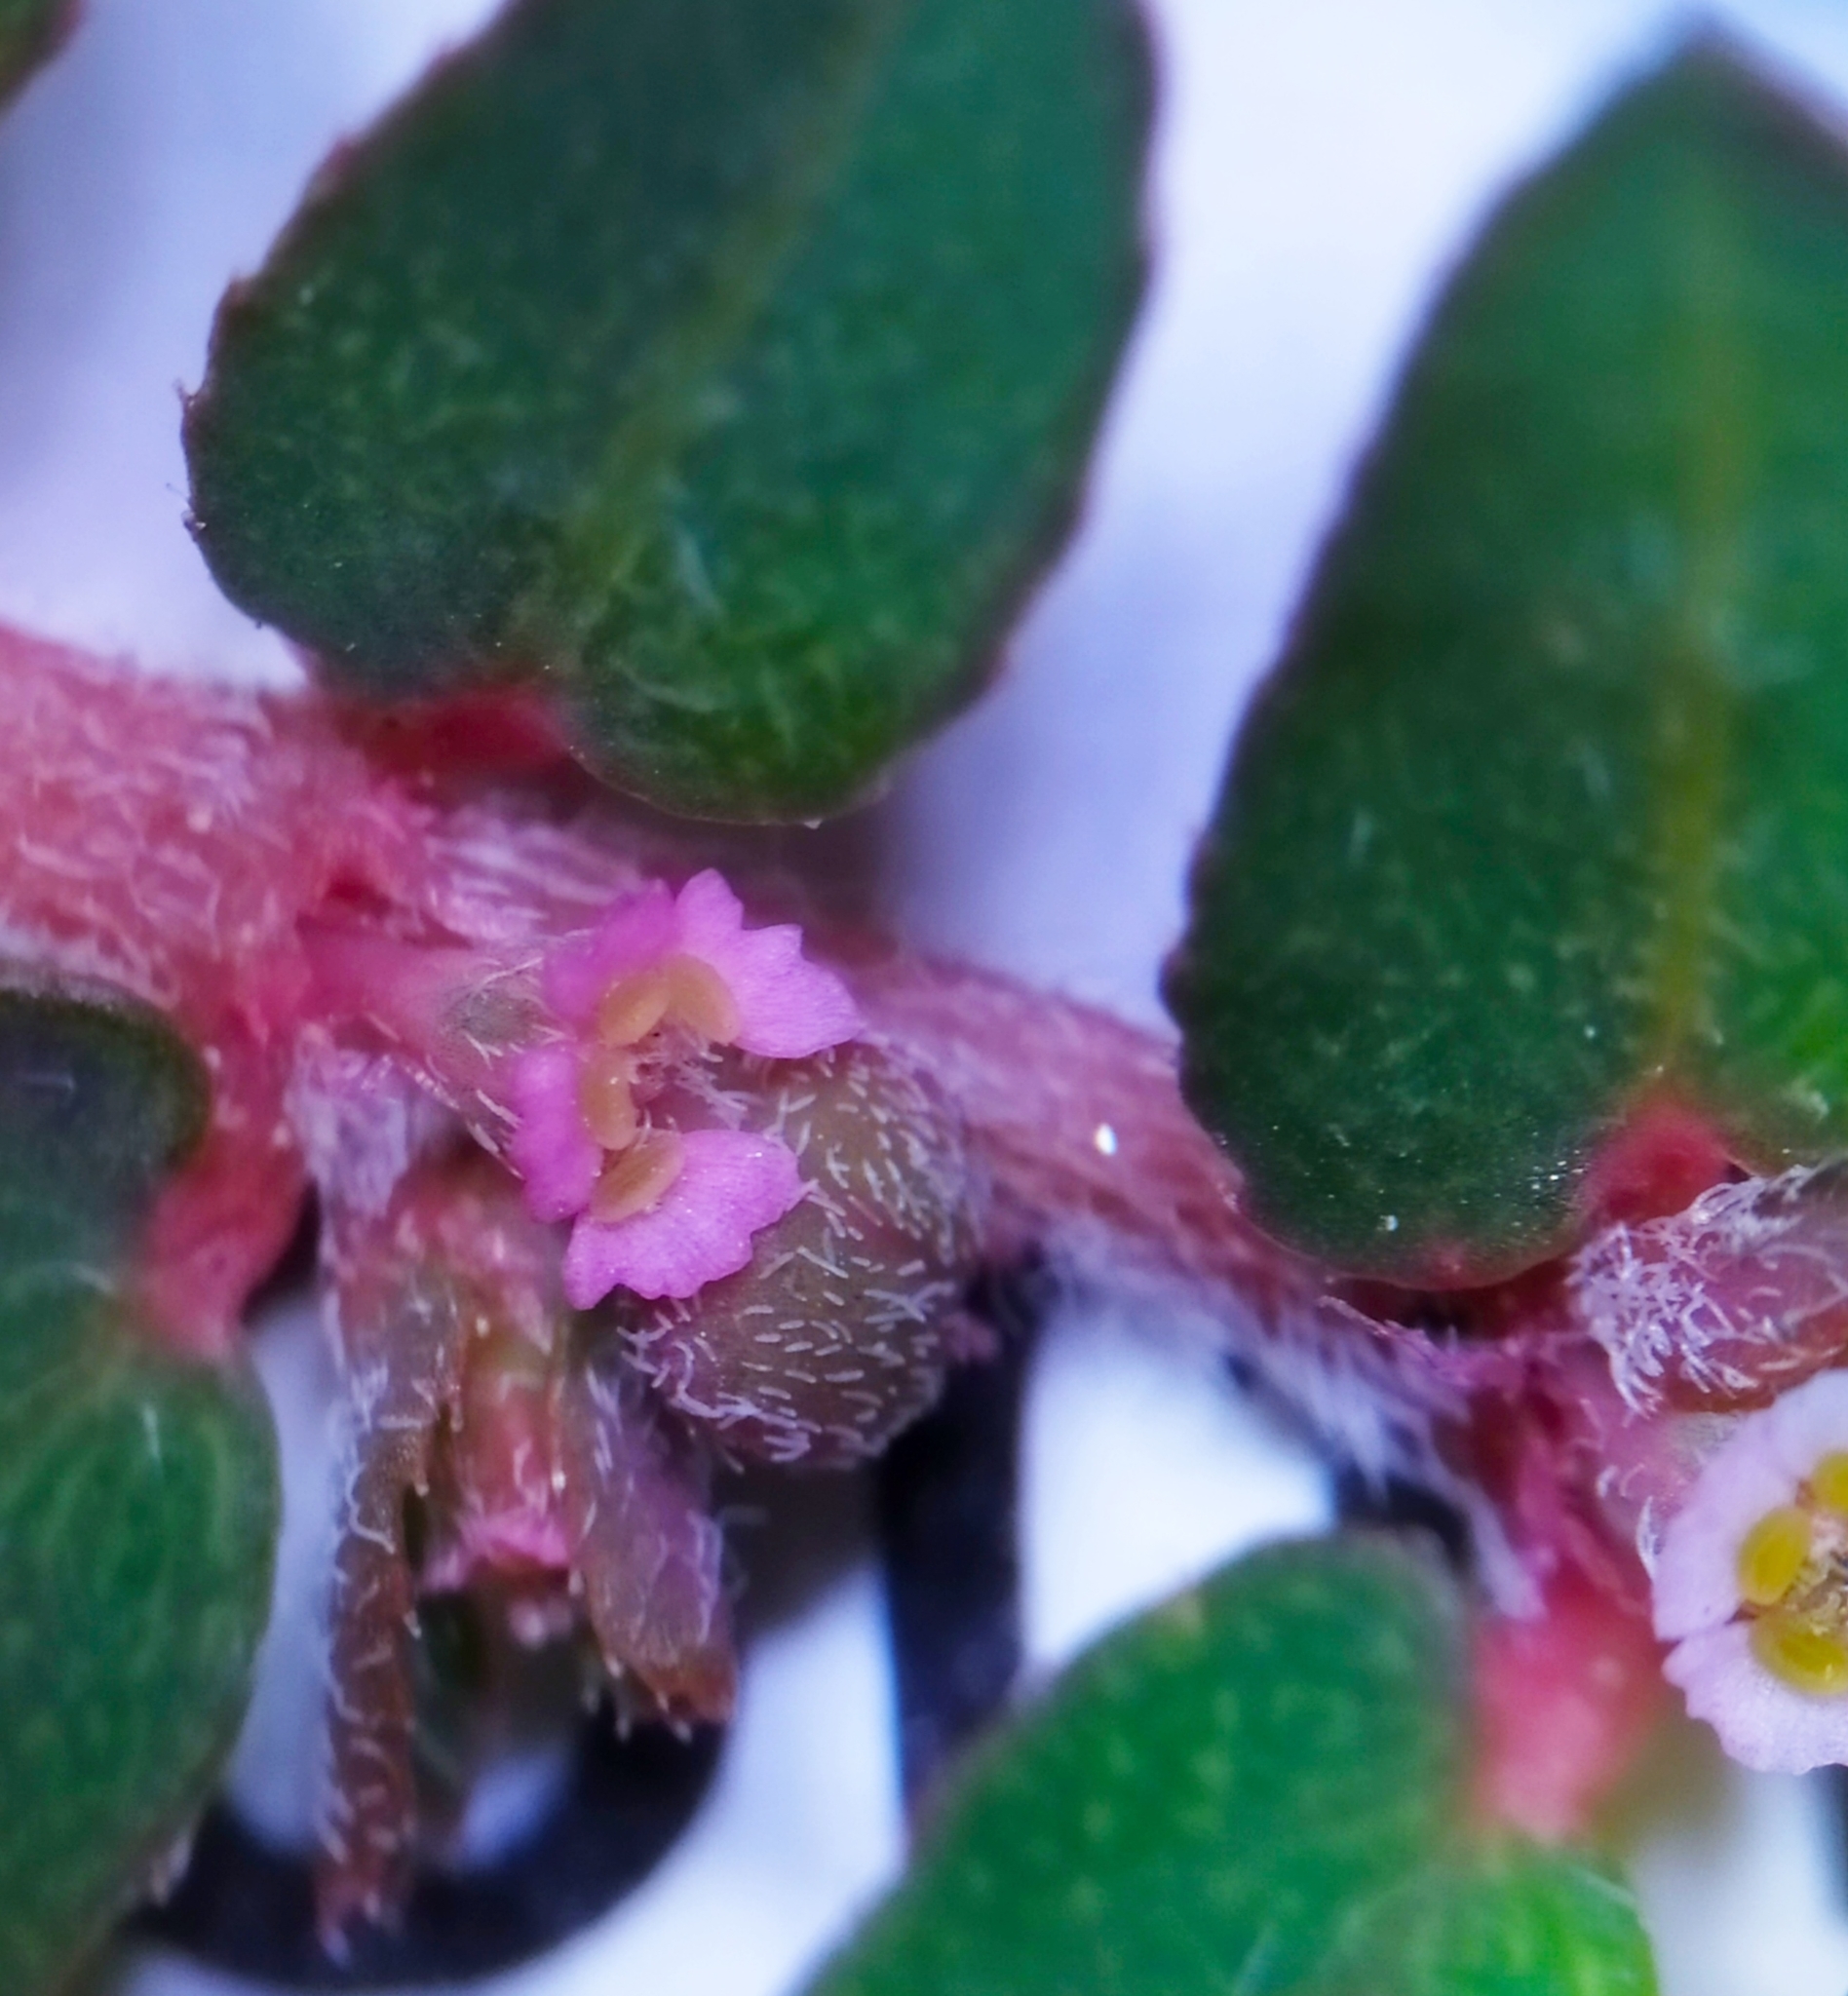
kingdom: Plantae
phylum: Tracheophyta
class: Magnoliopsida
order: Malpighiales
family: Euphorbiaceae
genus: Euphorbia
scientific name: Euphorbia maculata
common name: Spotted spurge
